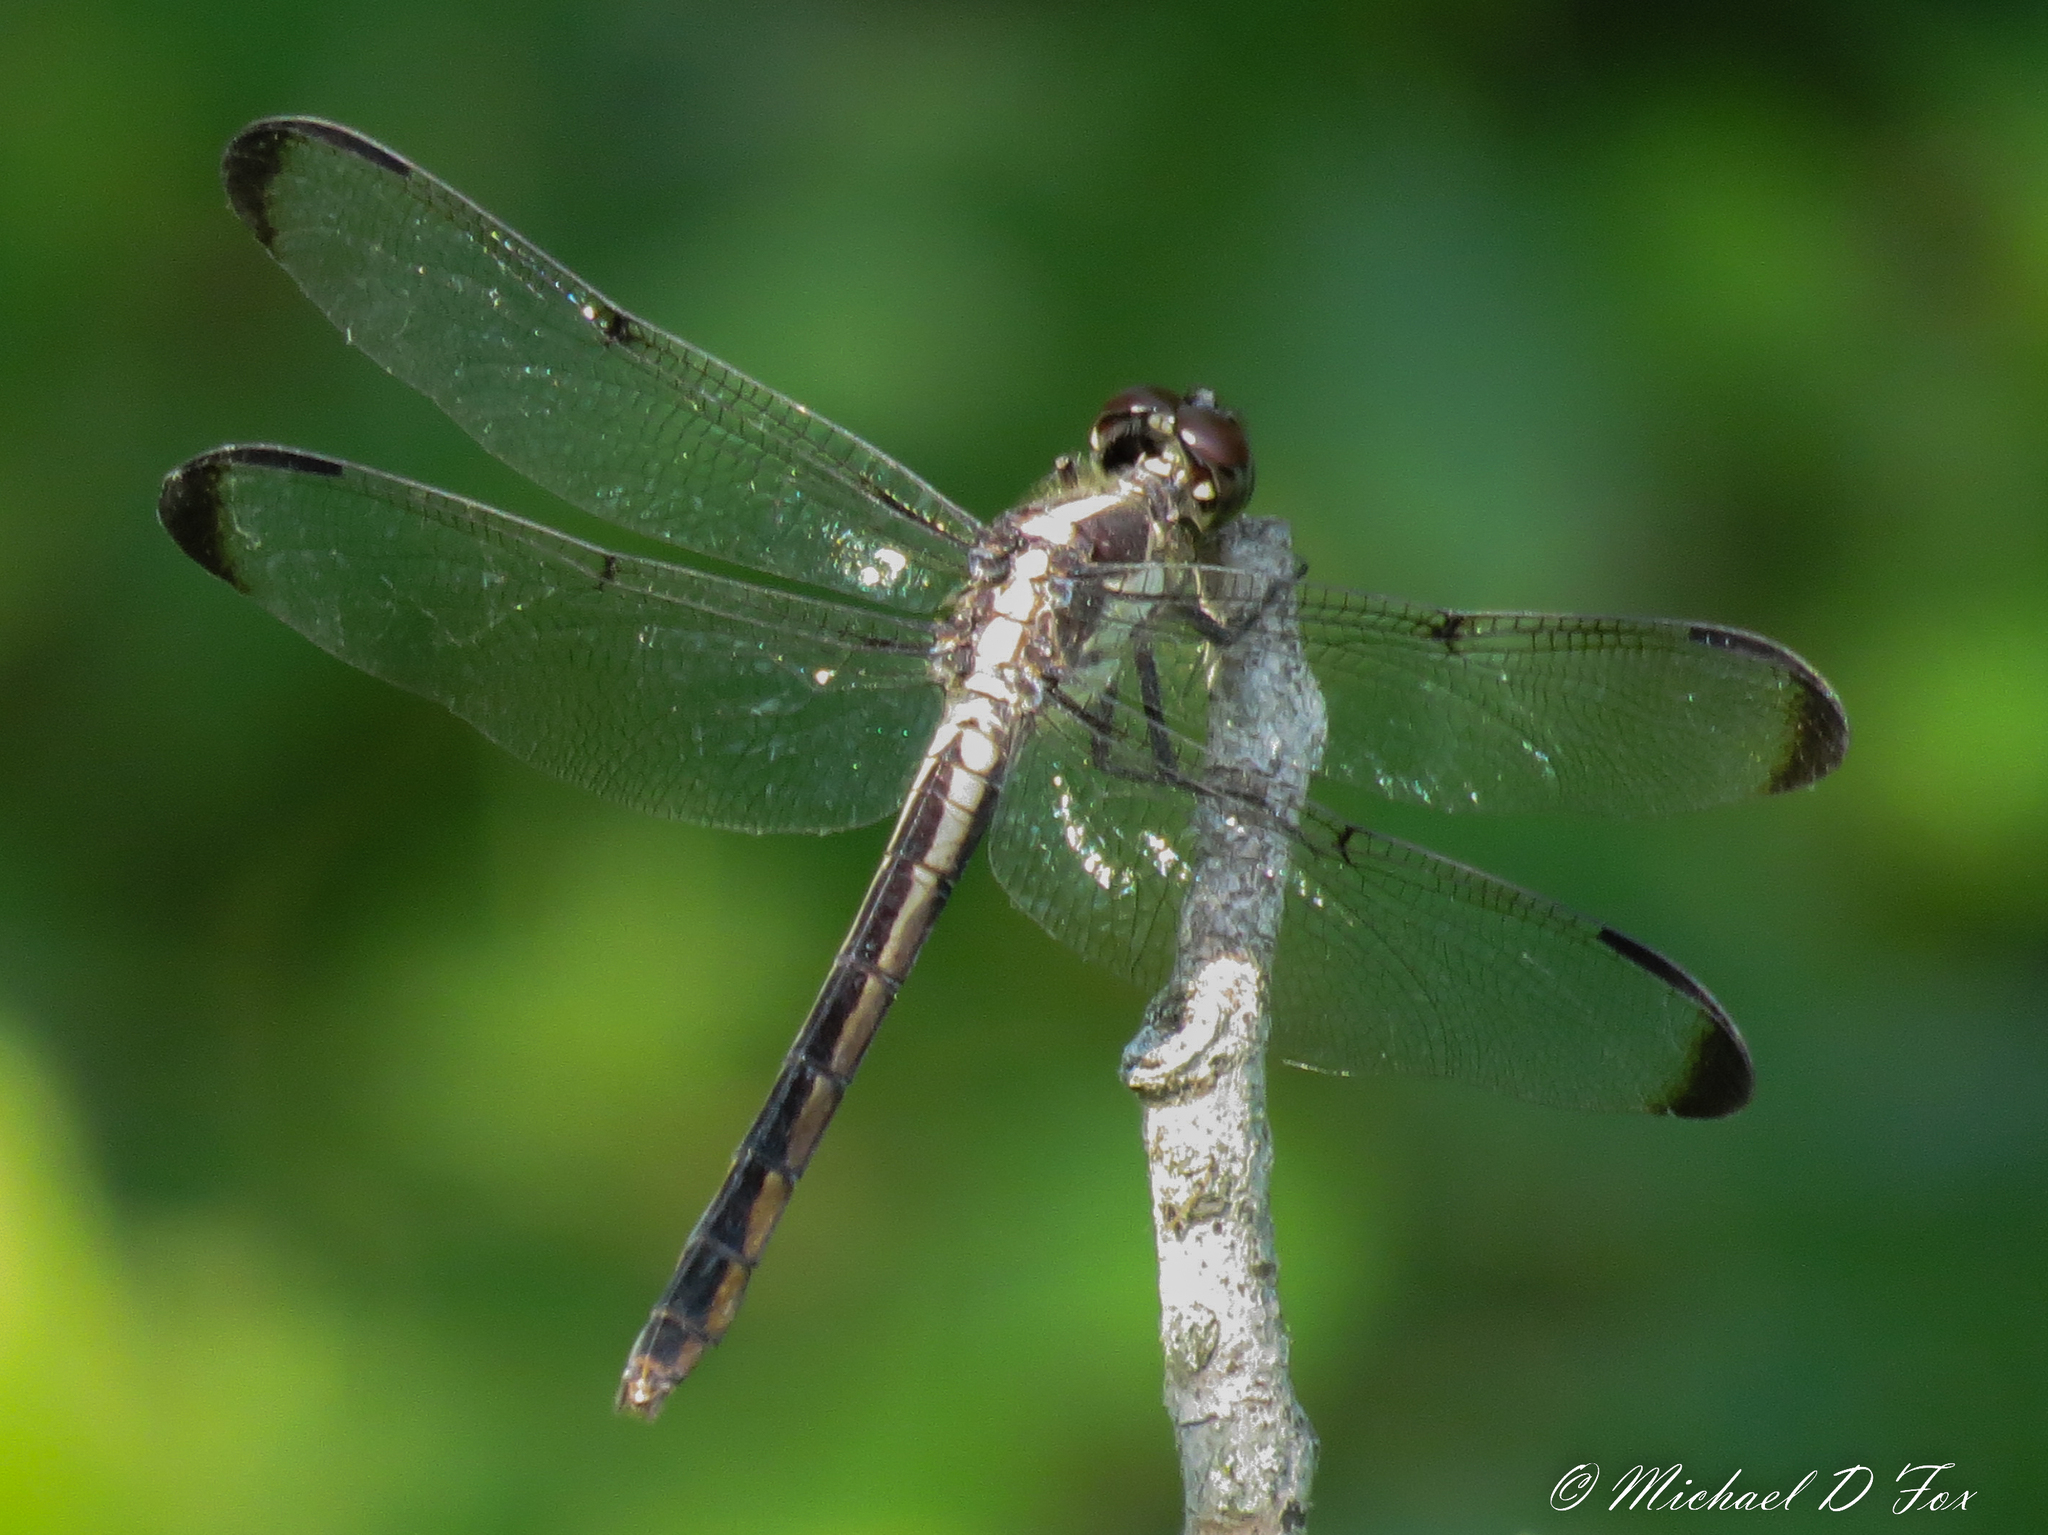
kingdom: Animalia
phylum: Arthropoda
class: Insecta
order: Odonata
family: Libellulidae
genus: Libellula
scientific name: Libellula incesta
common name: Slaty skimmer
